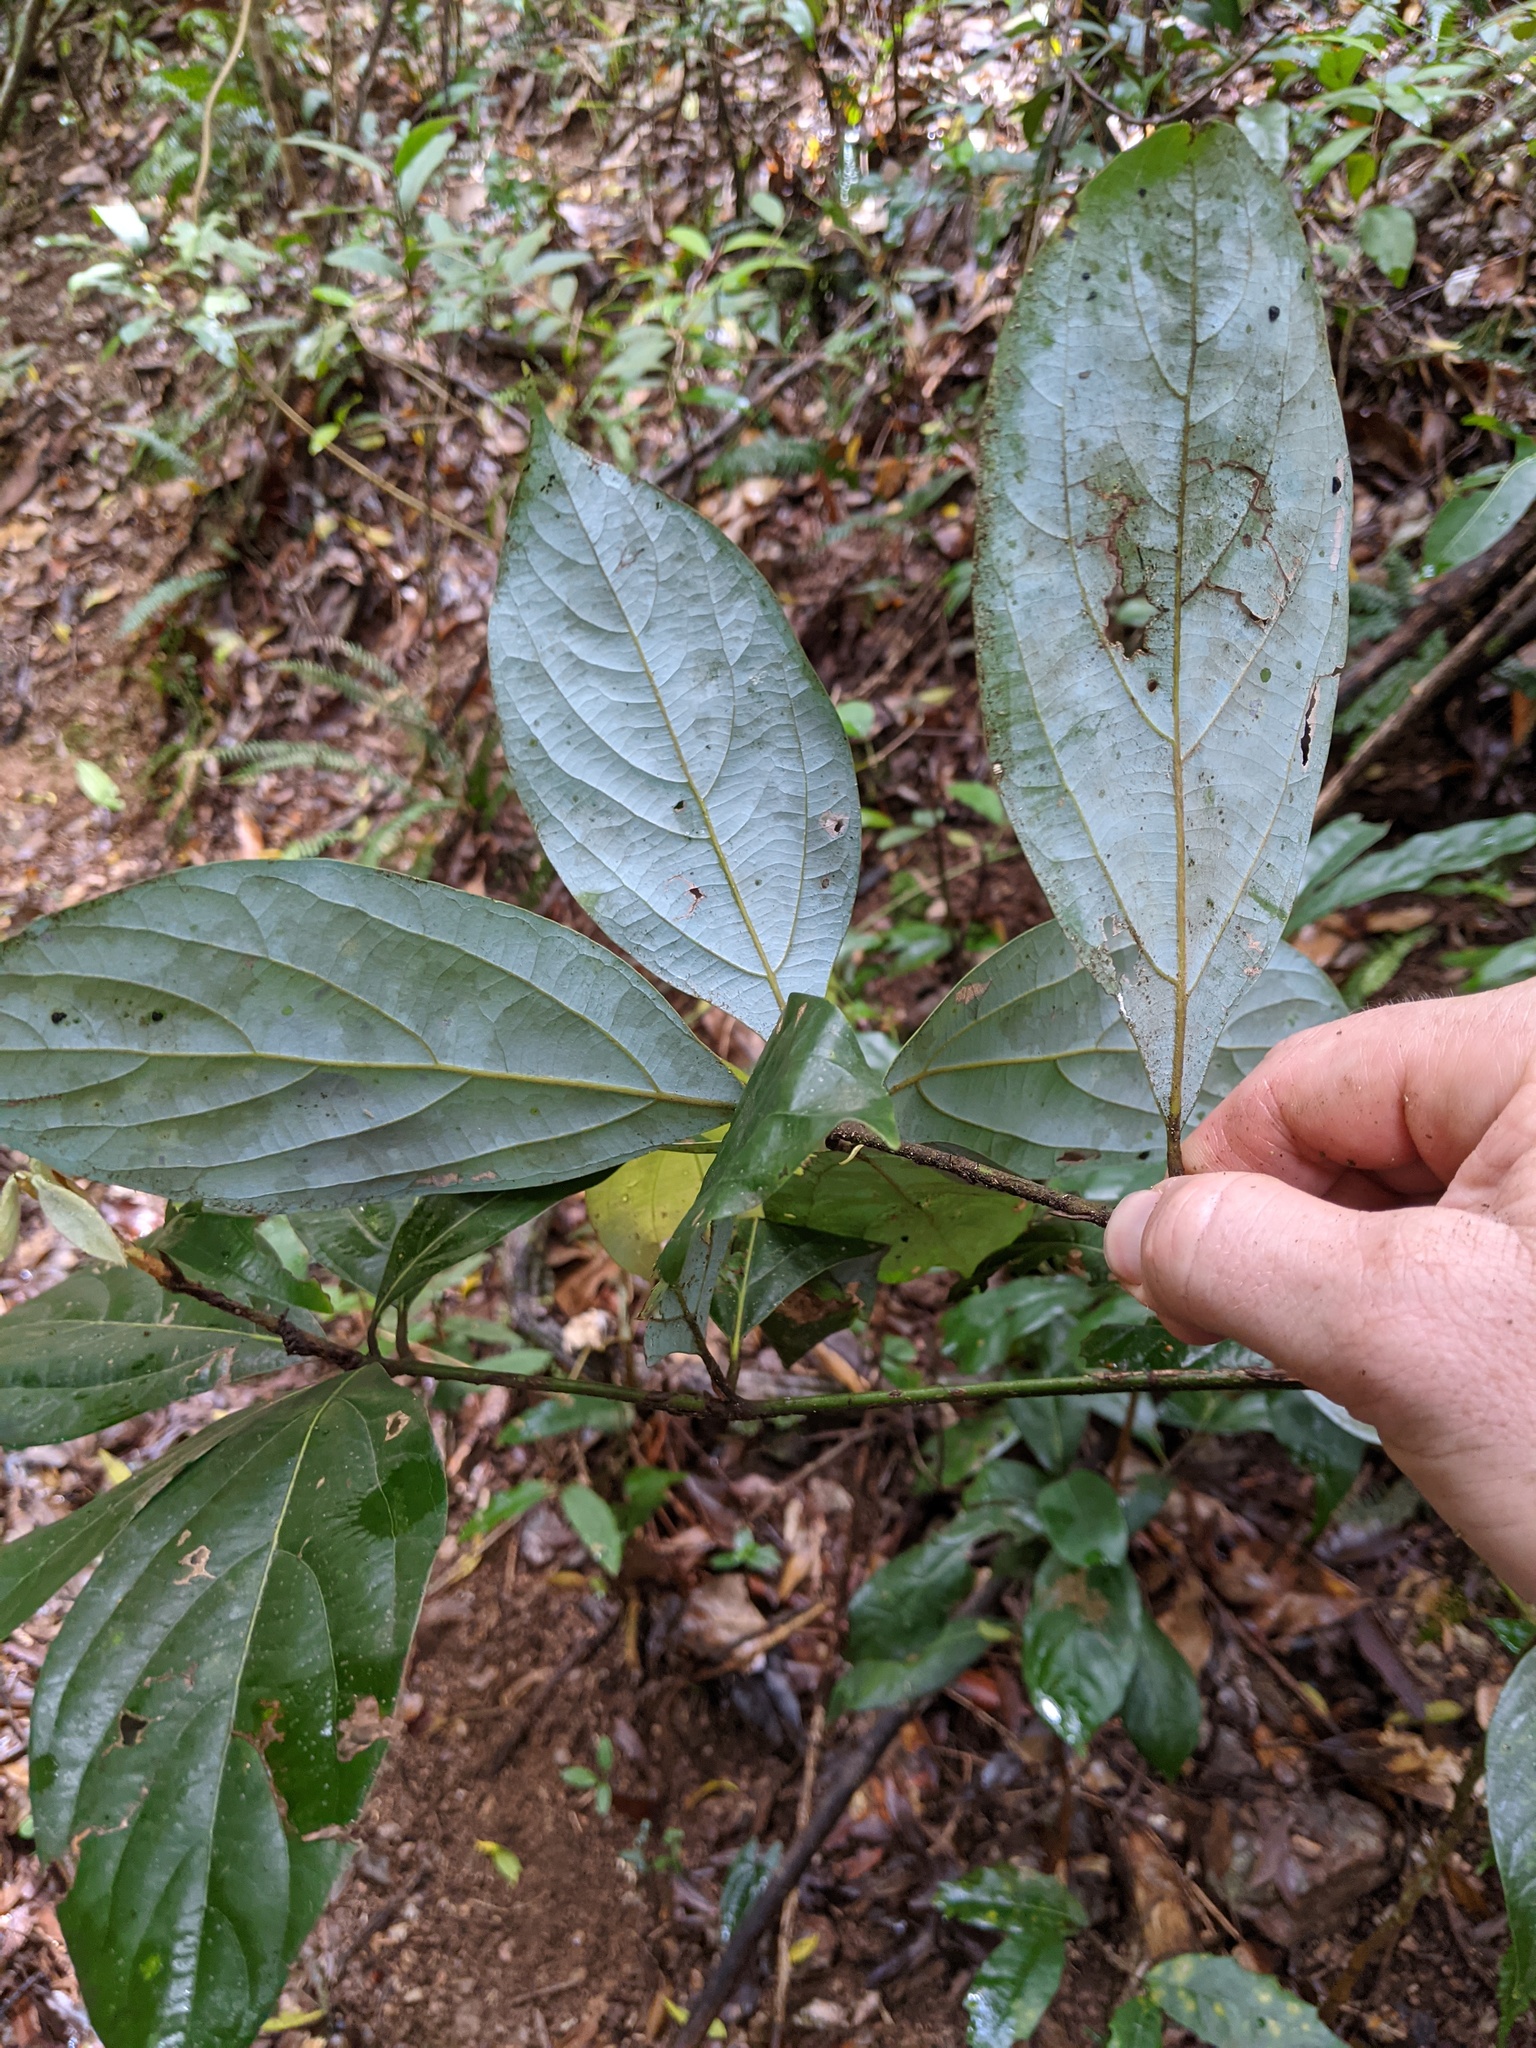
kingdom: Plantae
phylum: Tracheophyta
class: Magnoliopsida
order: Laurales
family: Lauraceae
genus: Neolitsea
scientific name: Neolitsea dealbata
